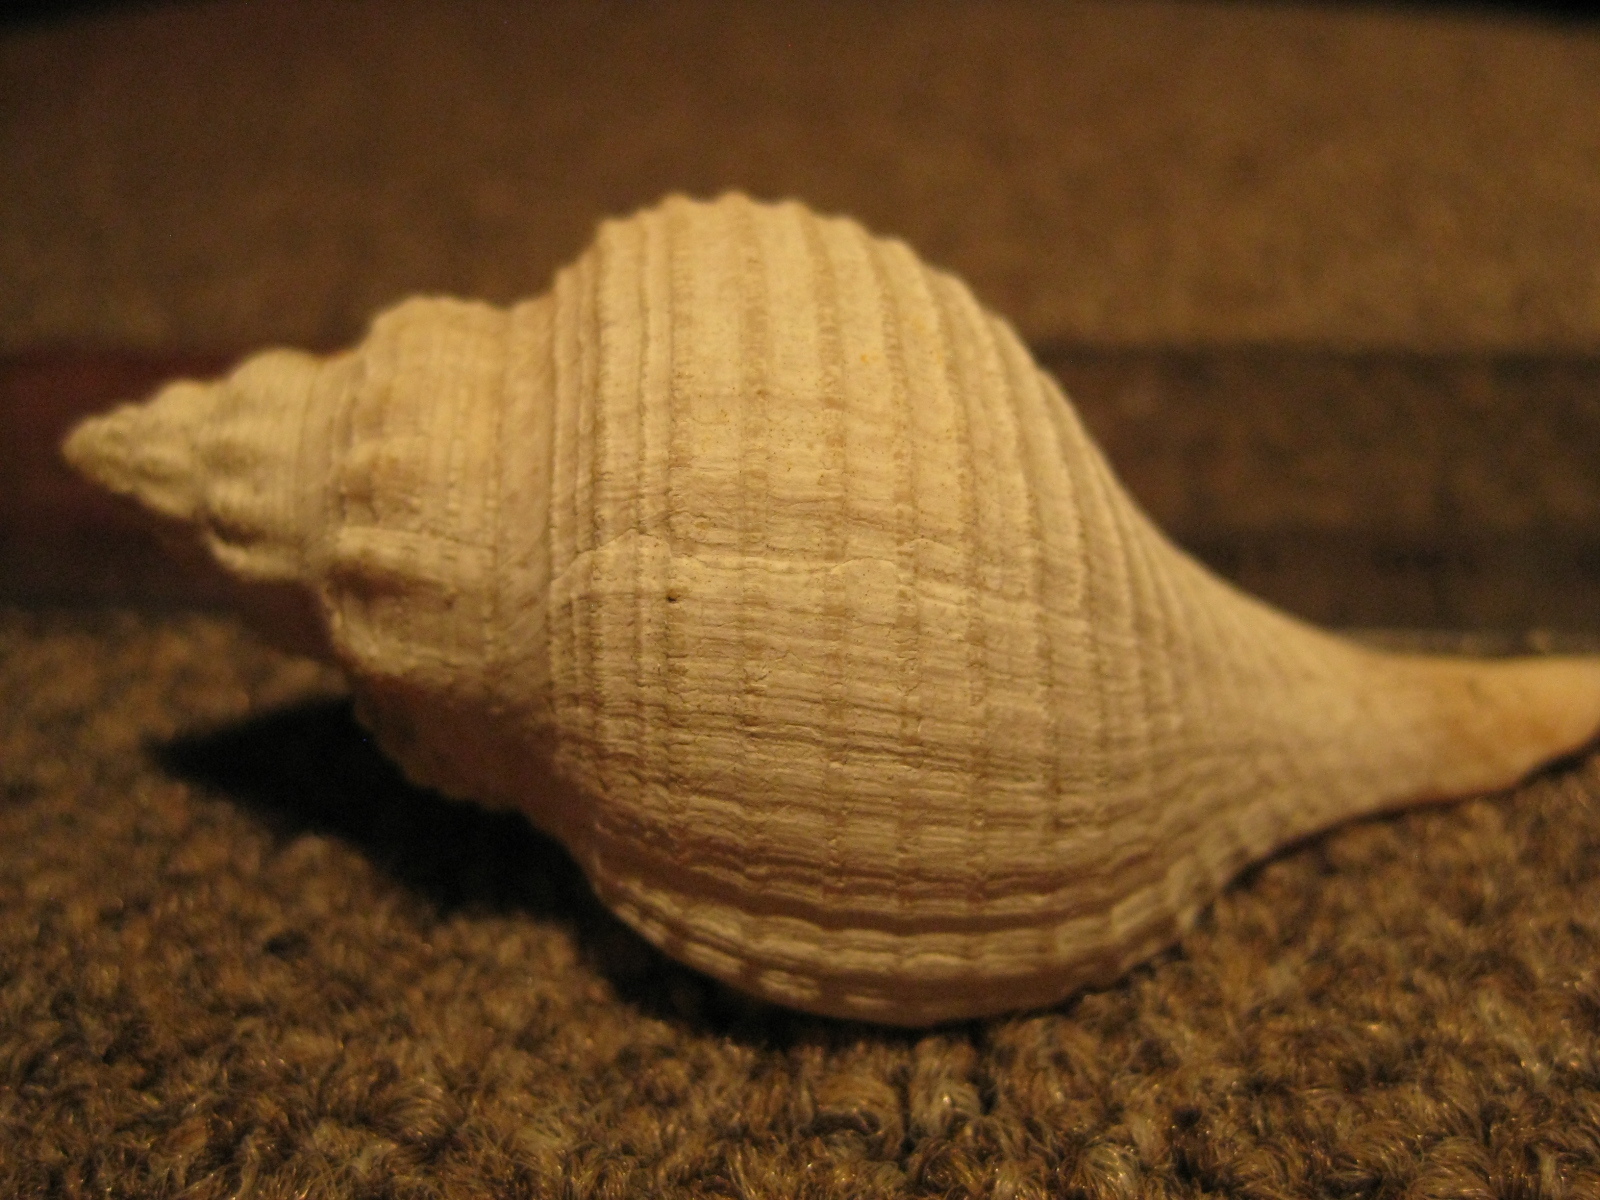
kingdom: Animalia
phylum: Mollusca
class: Gastropoda
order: Neogastropoda
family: Tudiclidae
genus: Aeneator
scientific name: Aeneator benthicolus
